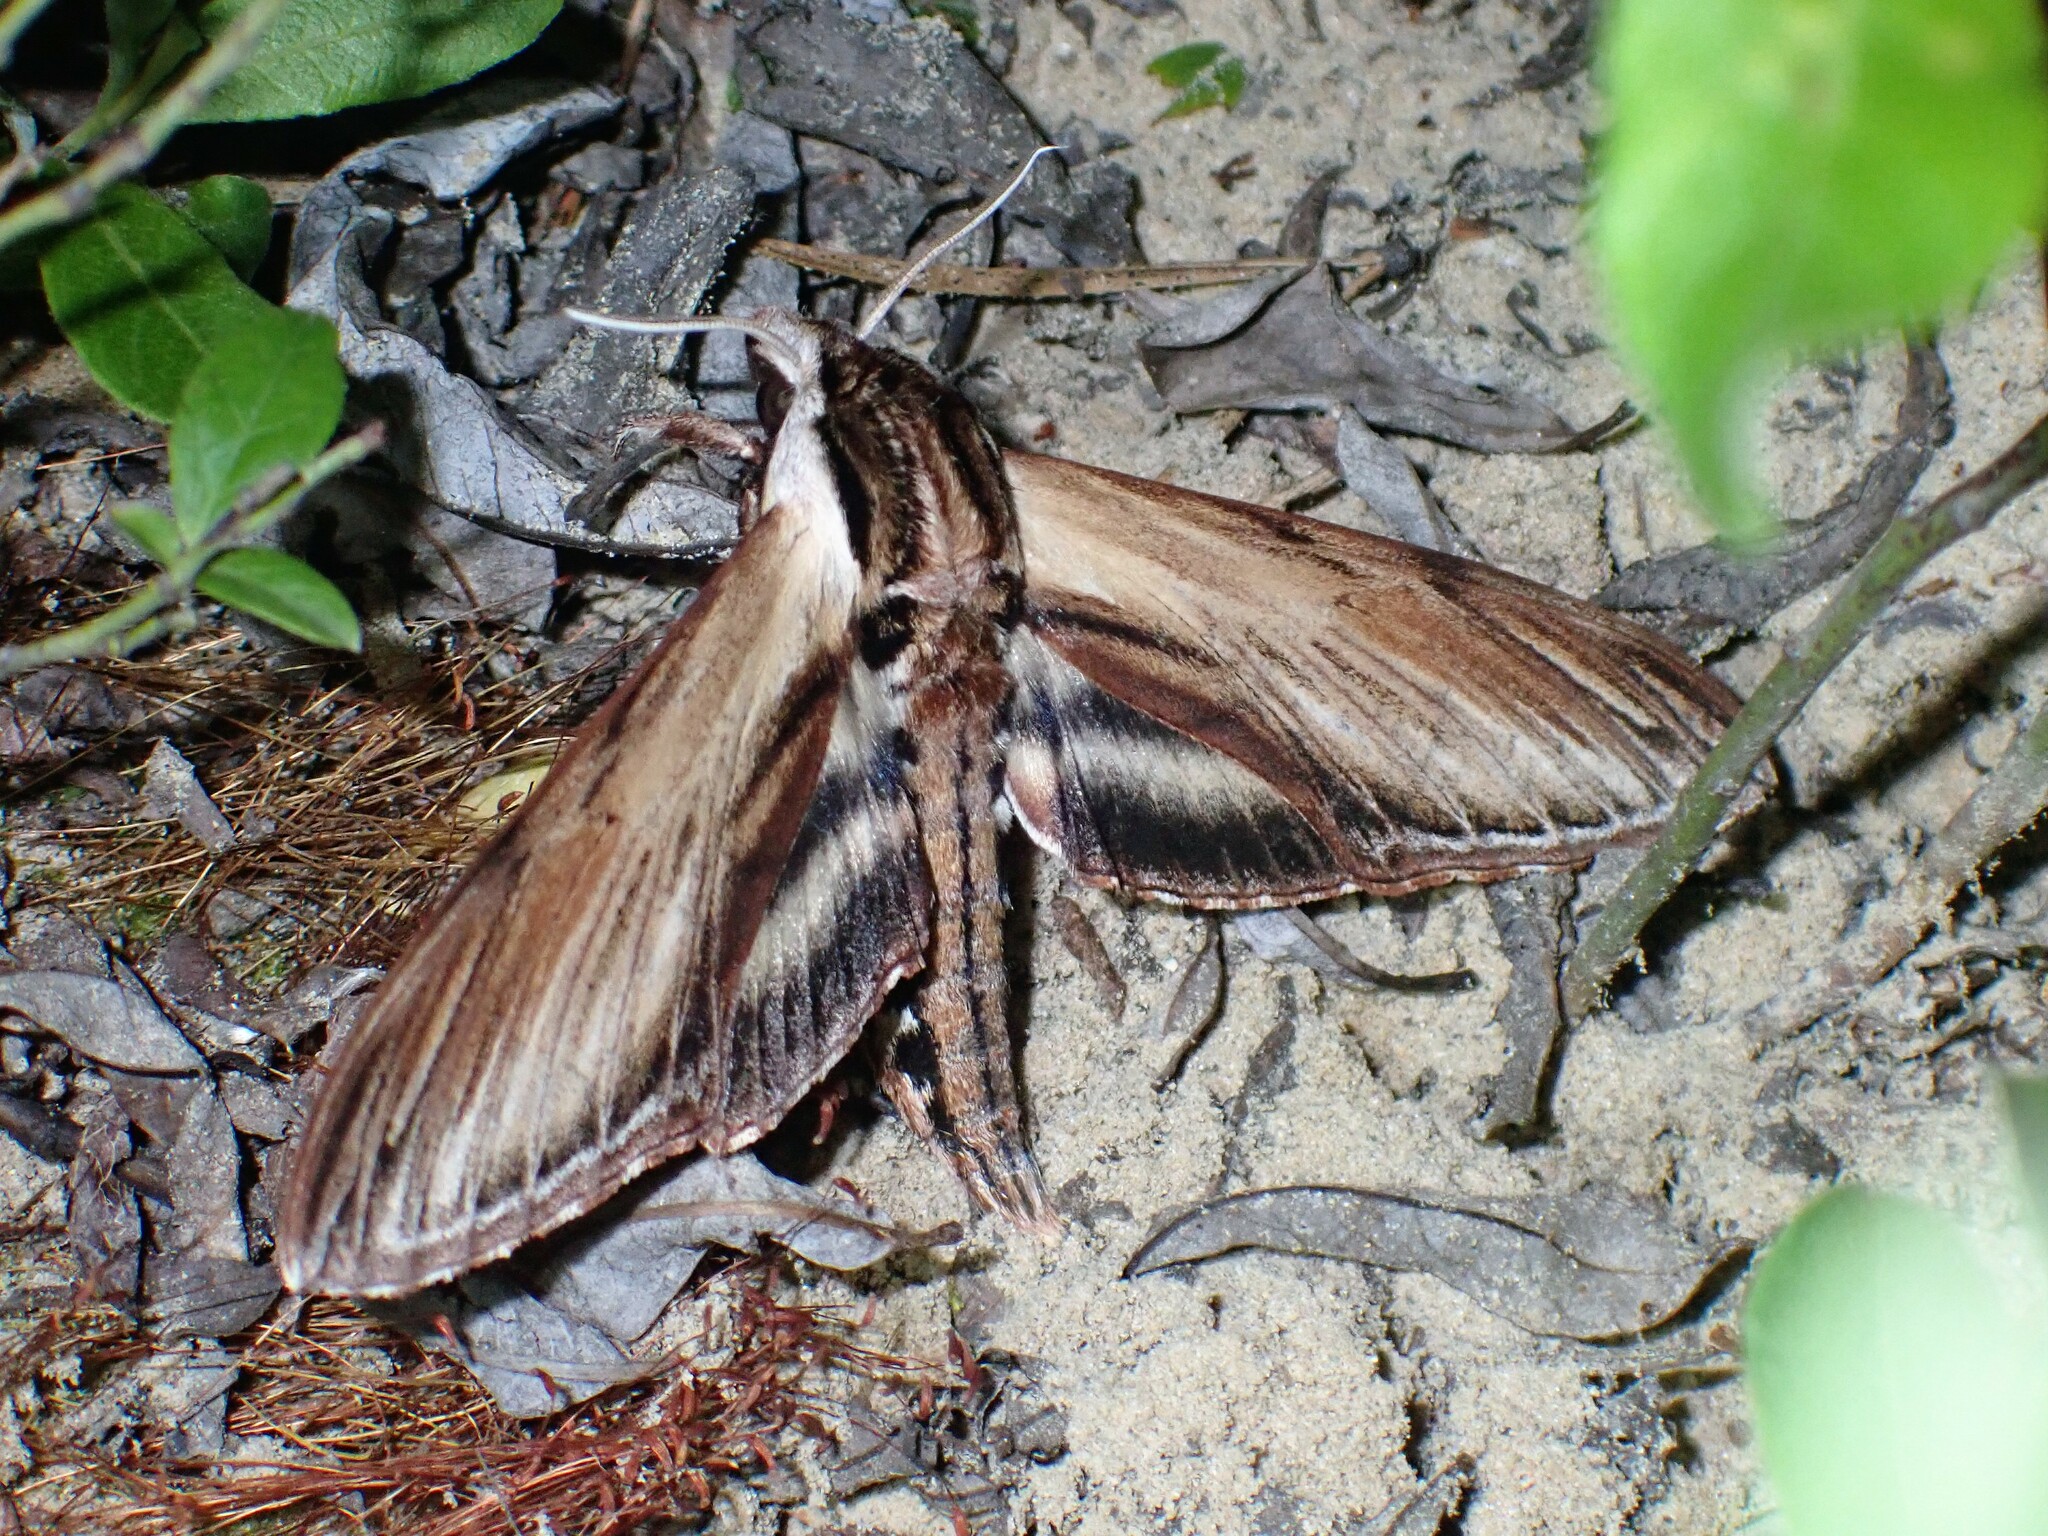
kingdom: Animalia
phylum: Arthropoda
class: Insecta
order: Lepidoptera
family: Sphingidae
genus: Sphinx
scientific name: Sphinx kalmiae
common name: Laurel sphinx
